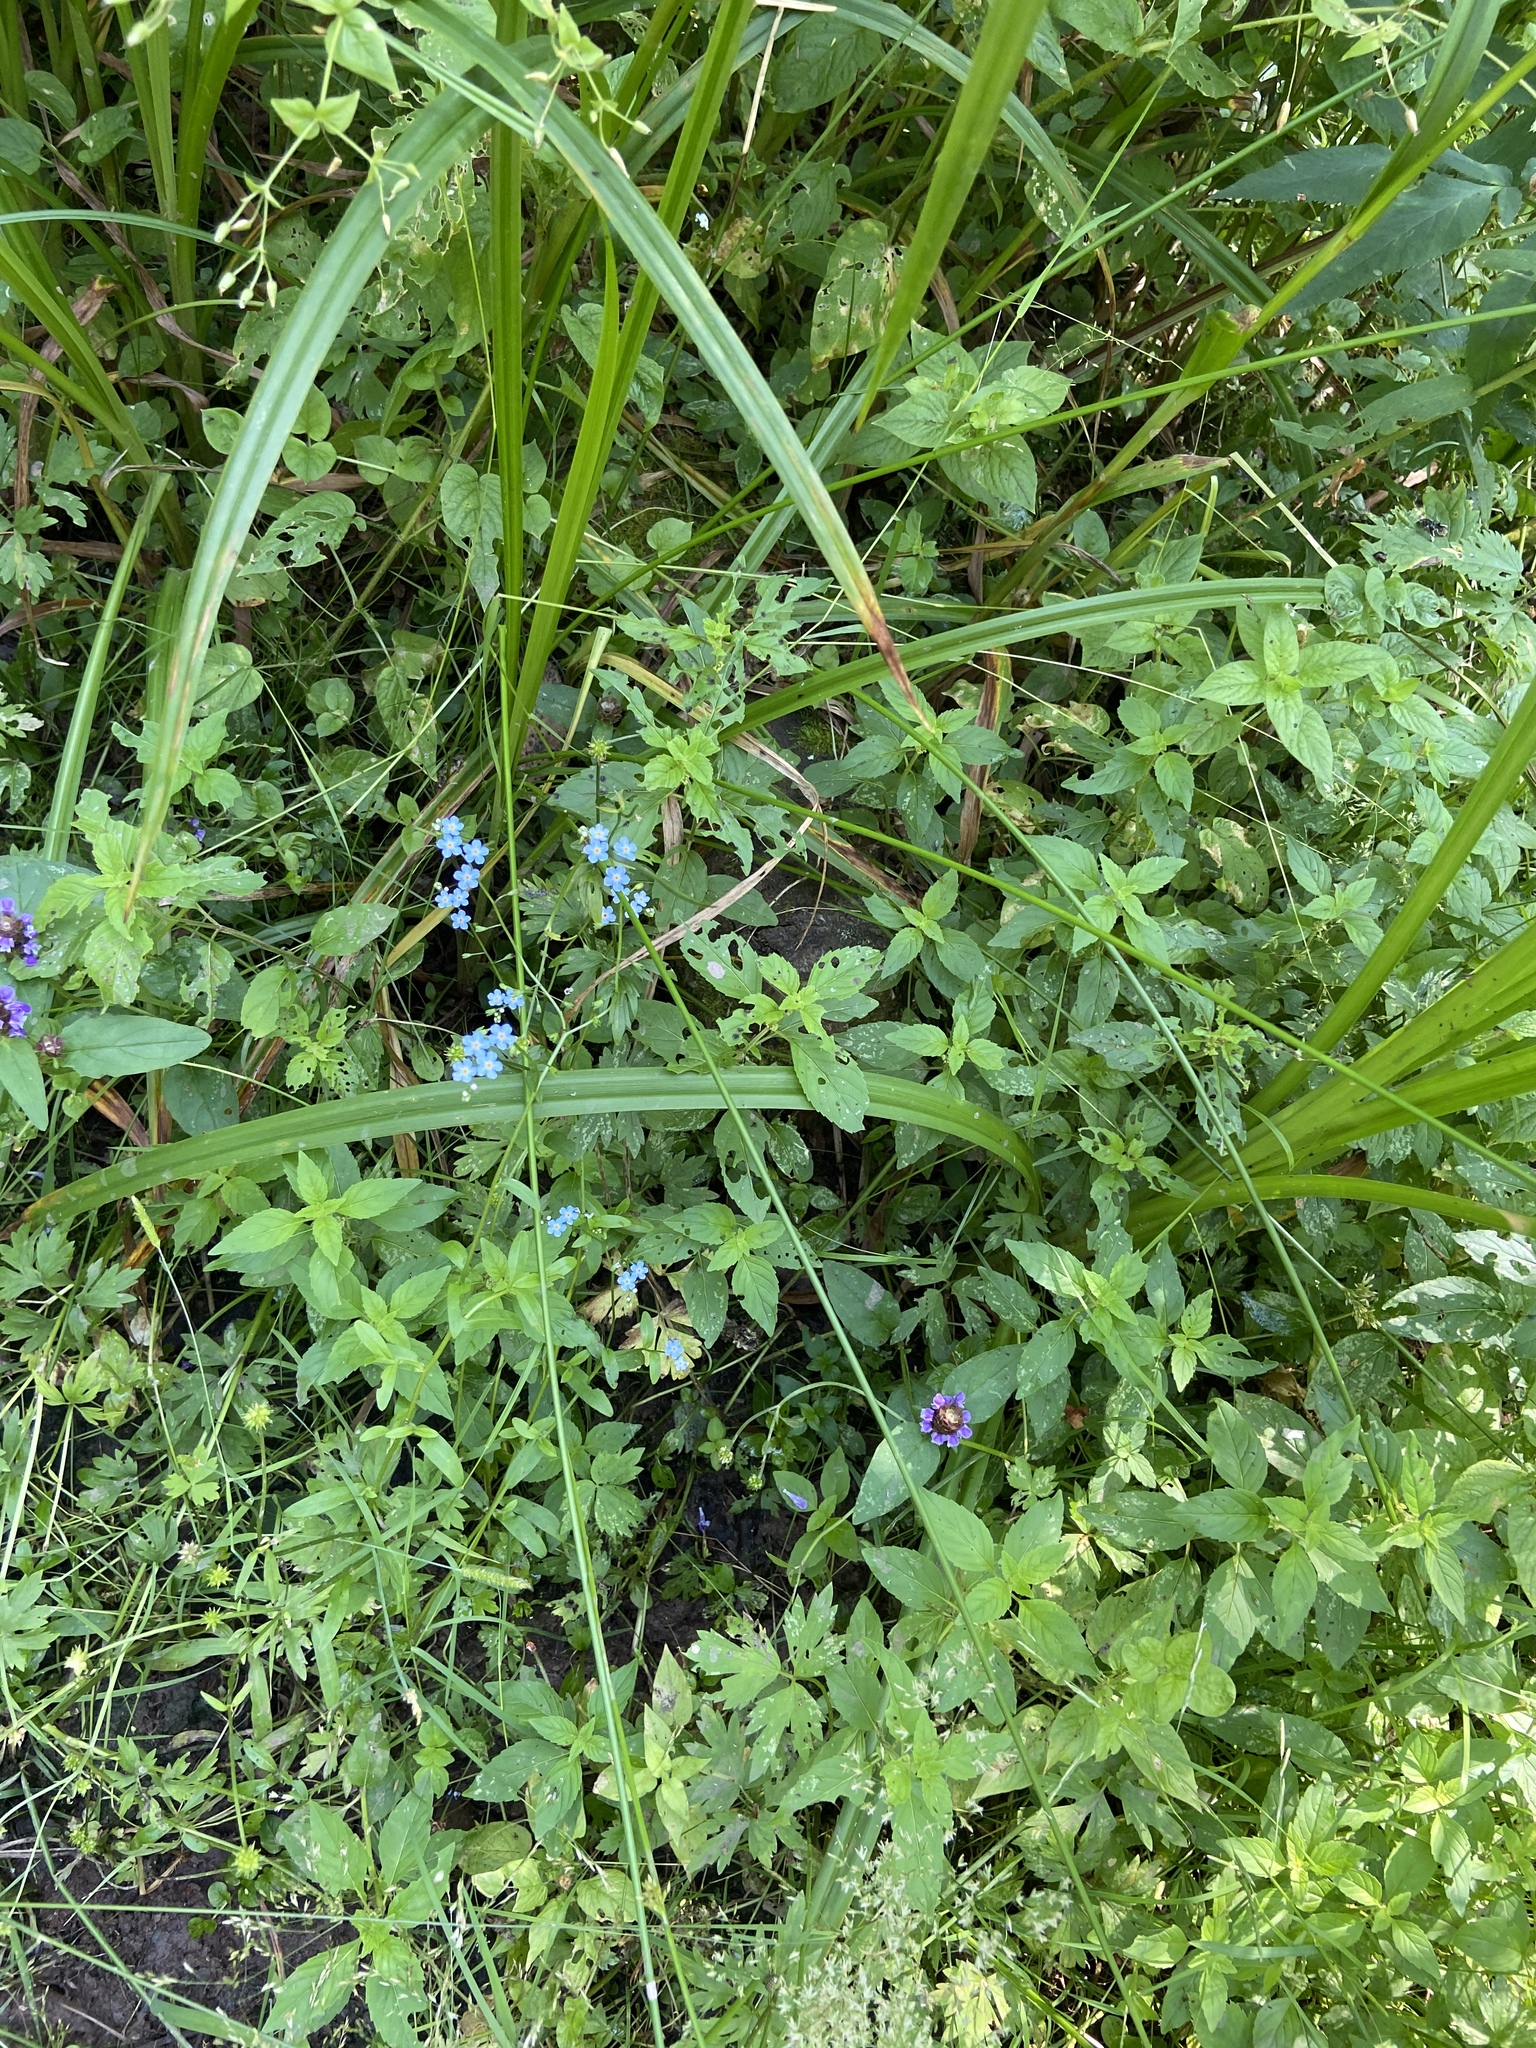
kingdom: Plantae
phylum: Tracheophyta
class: Magnoliopsida
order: Boraginales
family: Boraginaceae
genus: Myosotis
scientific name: Myosotis scorpioides
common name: Water forget-me-not
